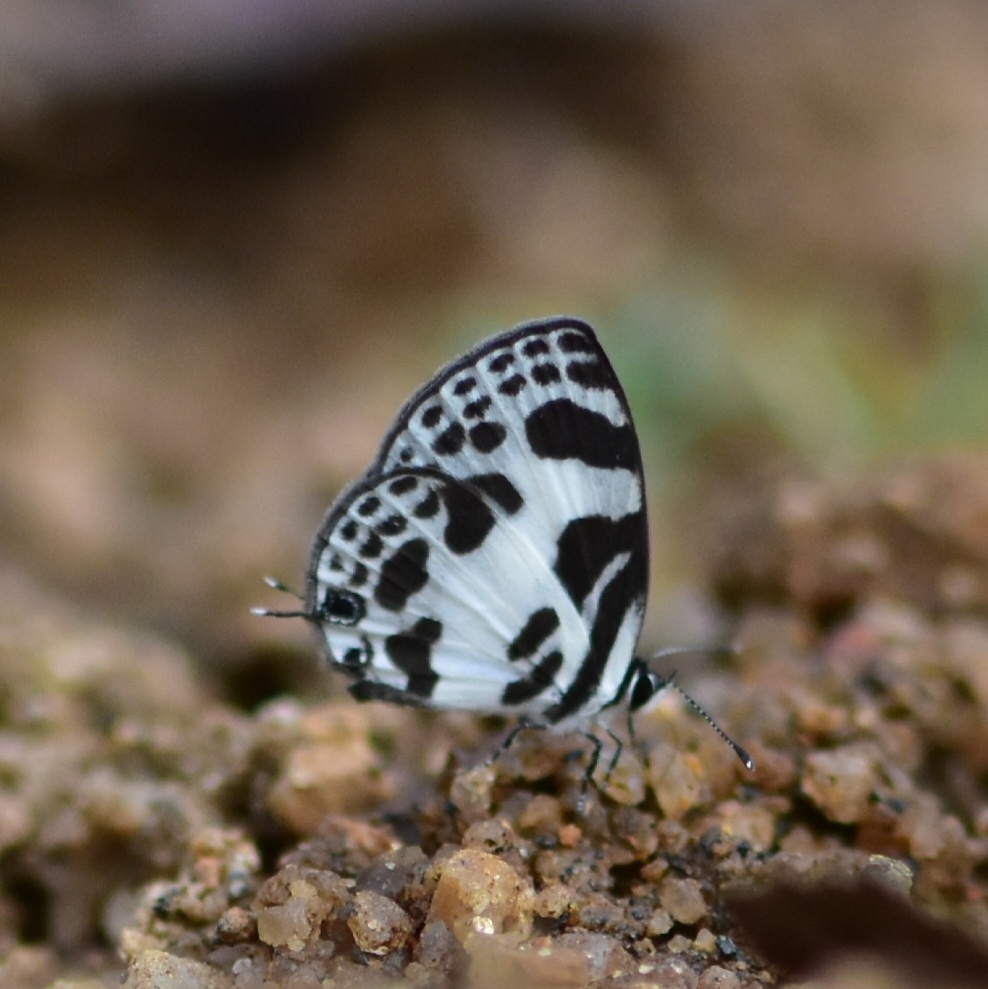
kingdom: Animalia
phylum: Arthropoda
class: Insecta
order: Lepidoptera
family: Lycaenidae
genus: Discolampa
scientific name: Discolampa ethion
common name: Banded blue pierrot
